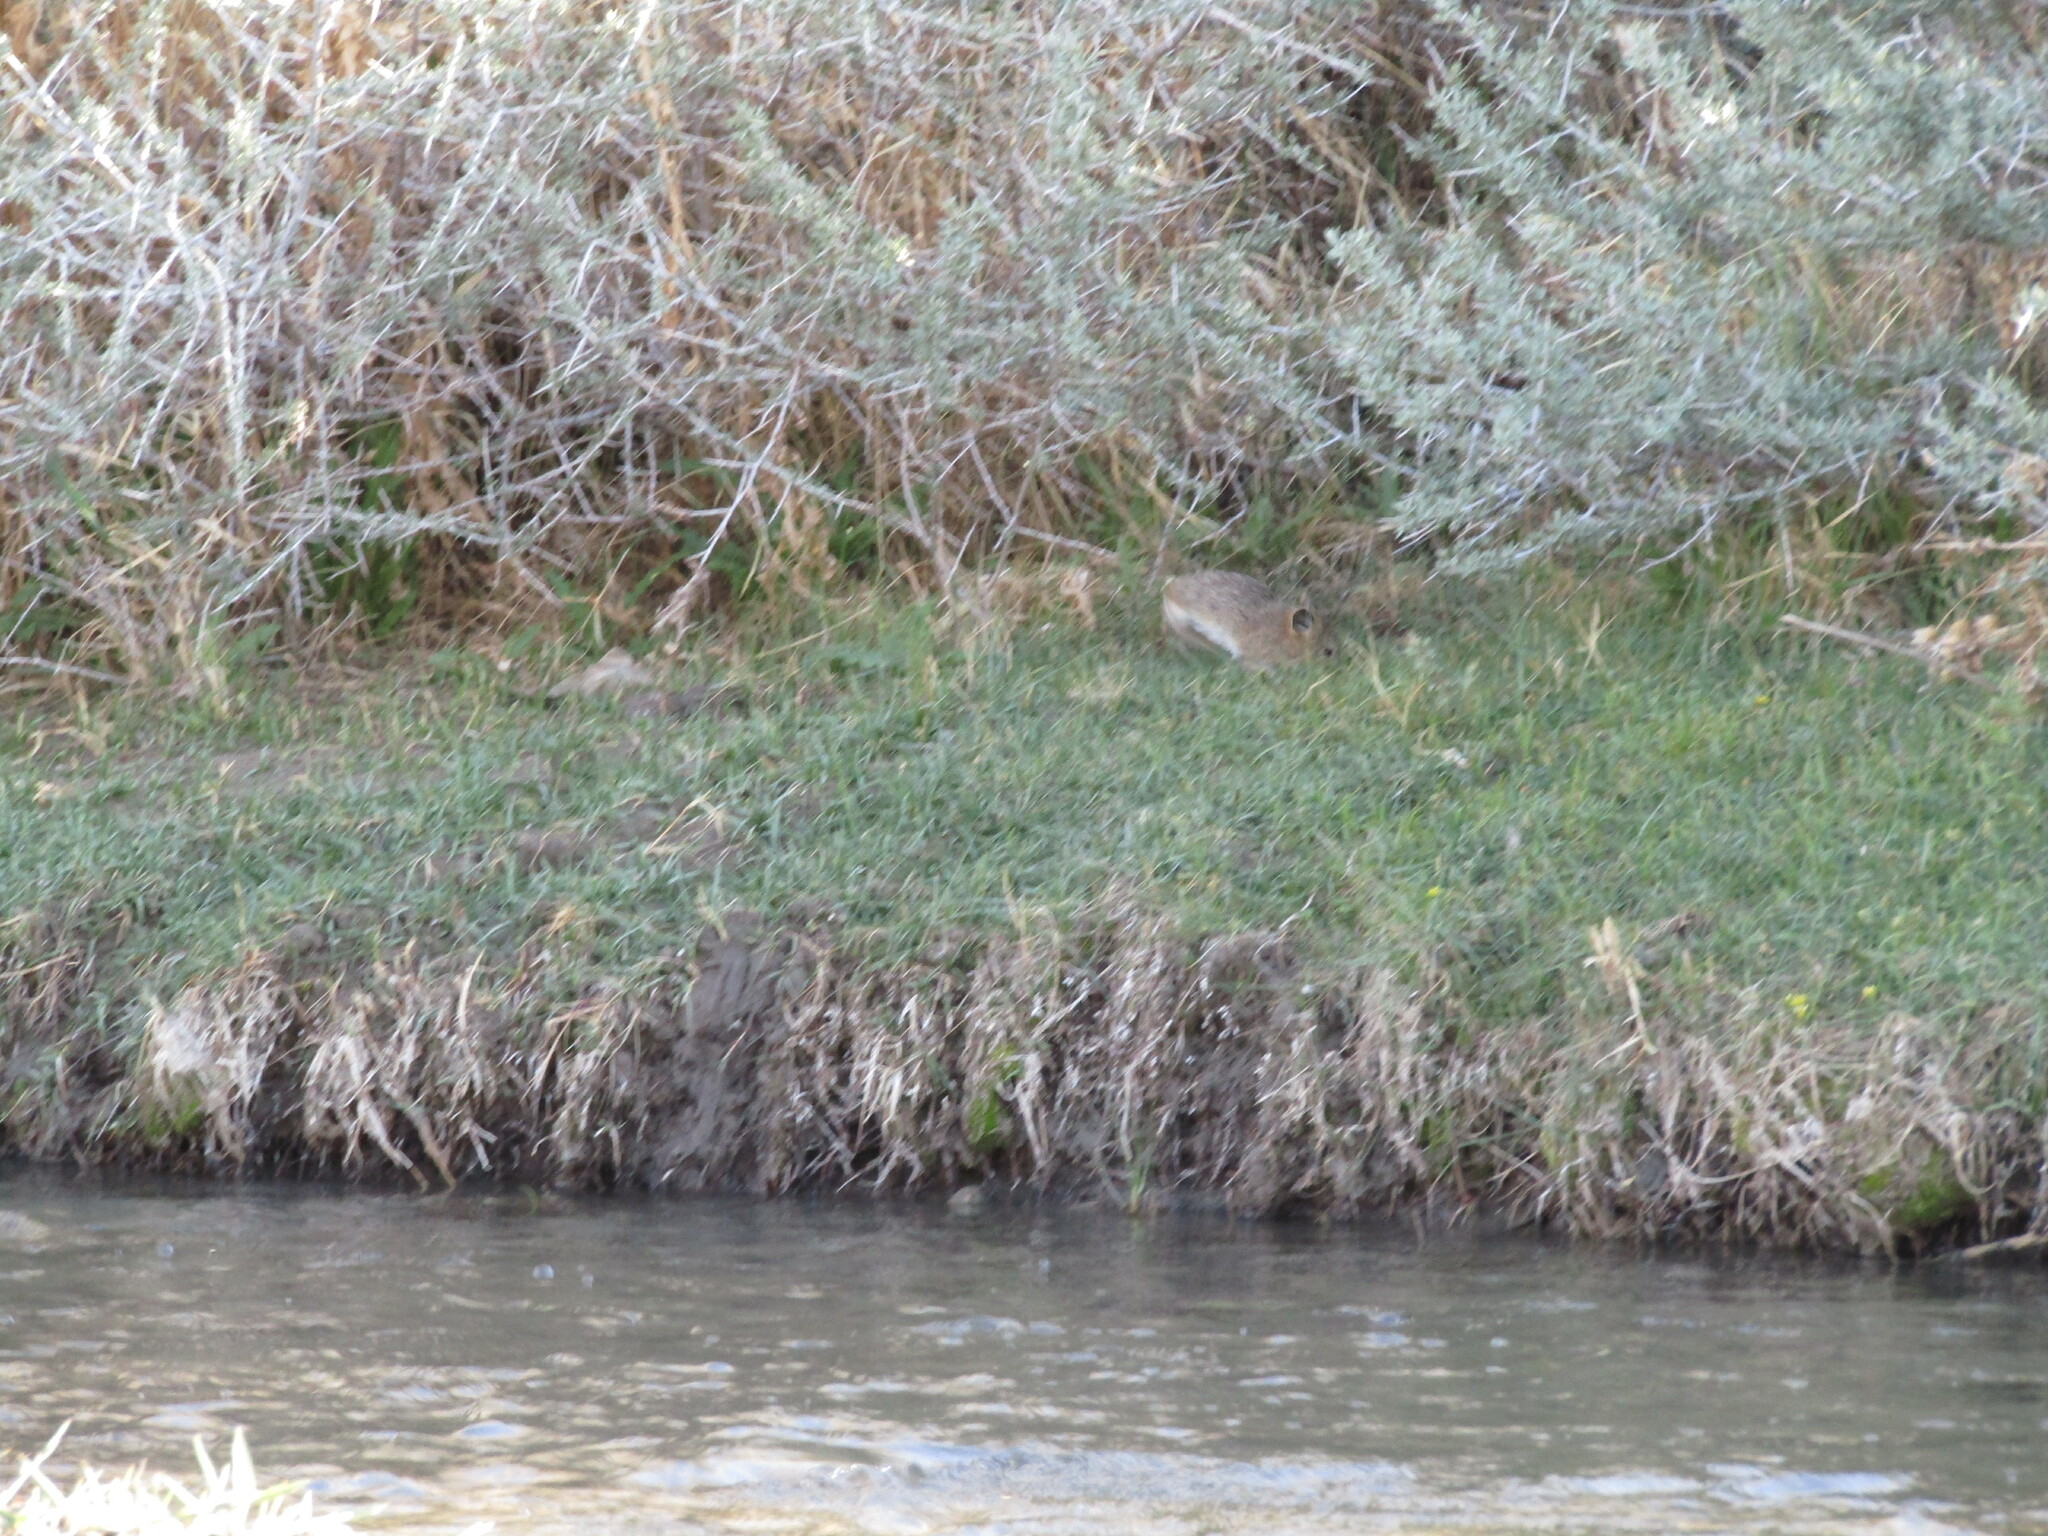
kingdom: Animalia
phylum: Chordata
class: Mammalia
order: Lagomorpha
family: Ochotonidae
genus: Ochotona
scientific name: Ochotona nubrica
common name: Nubra pika
